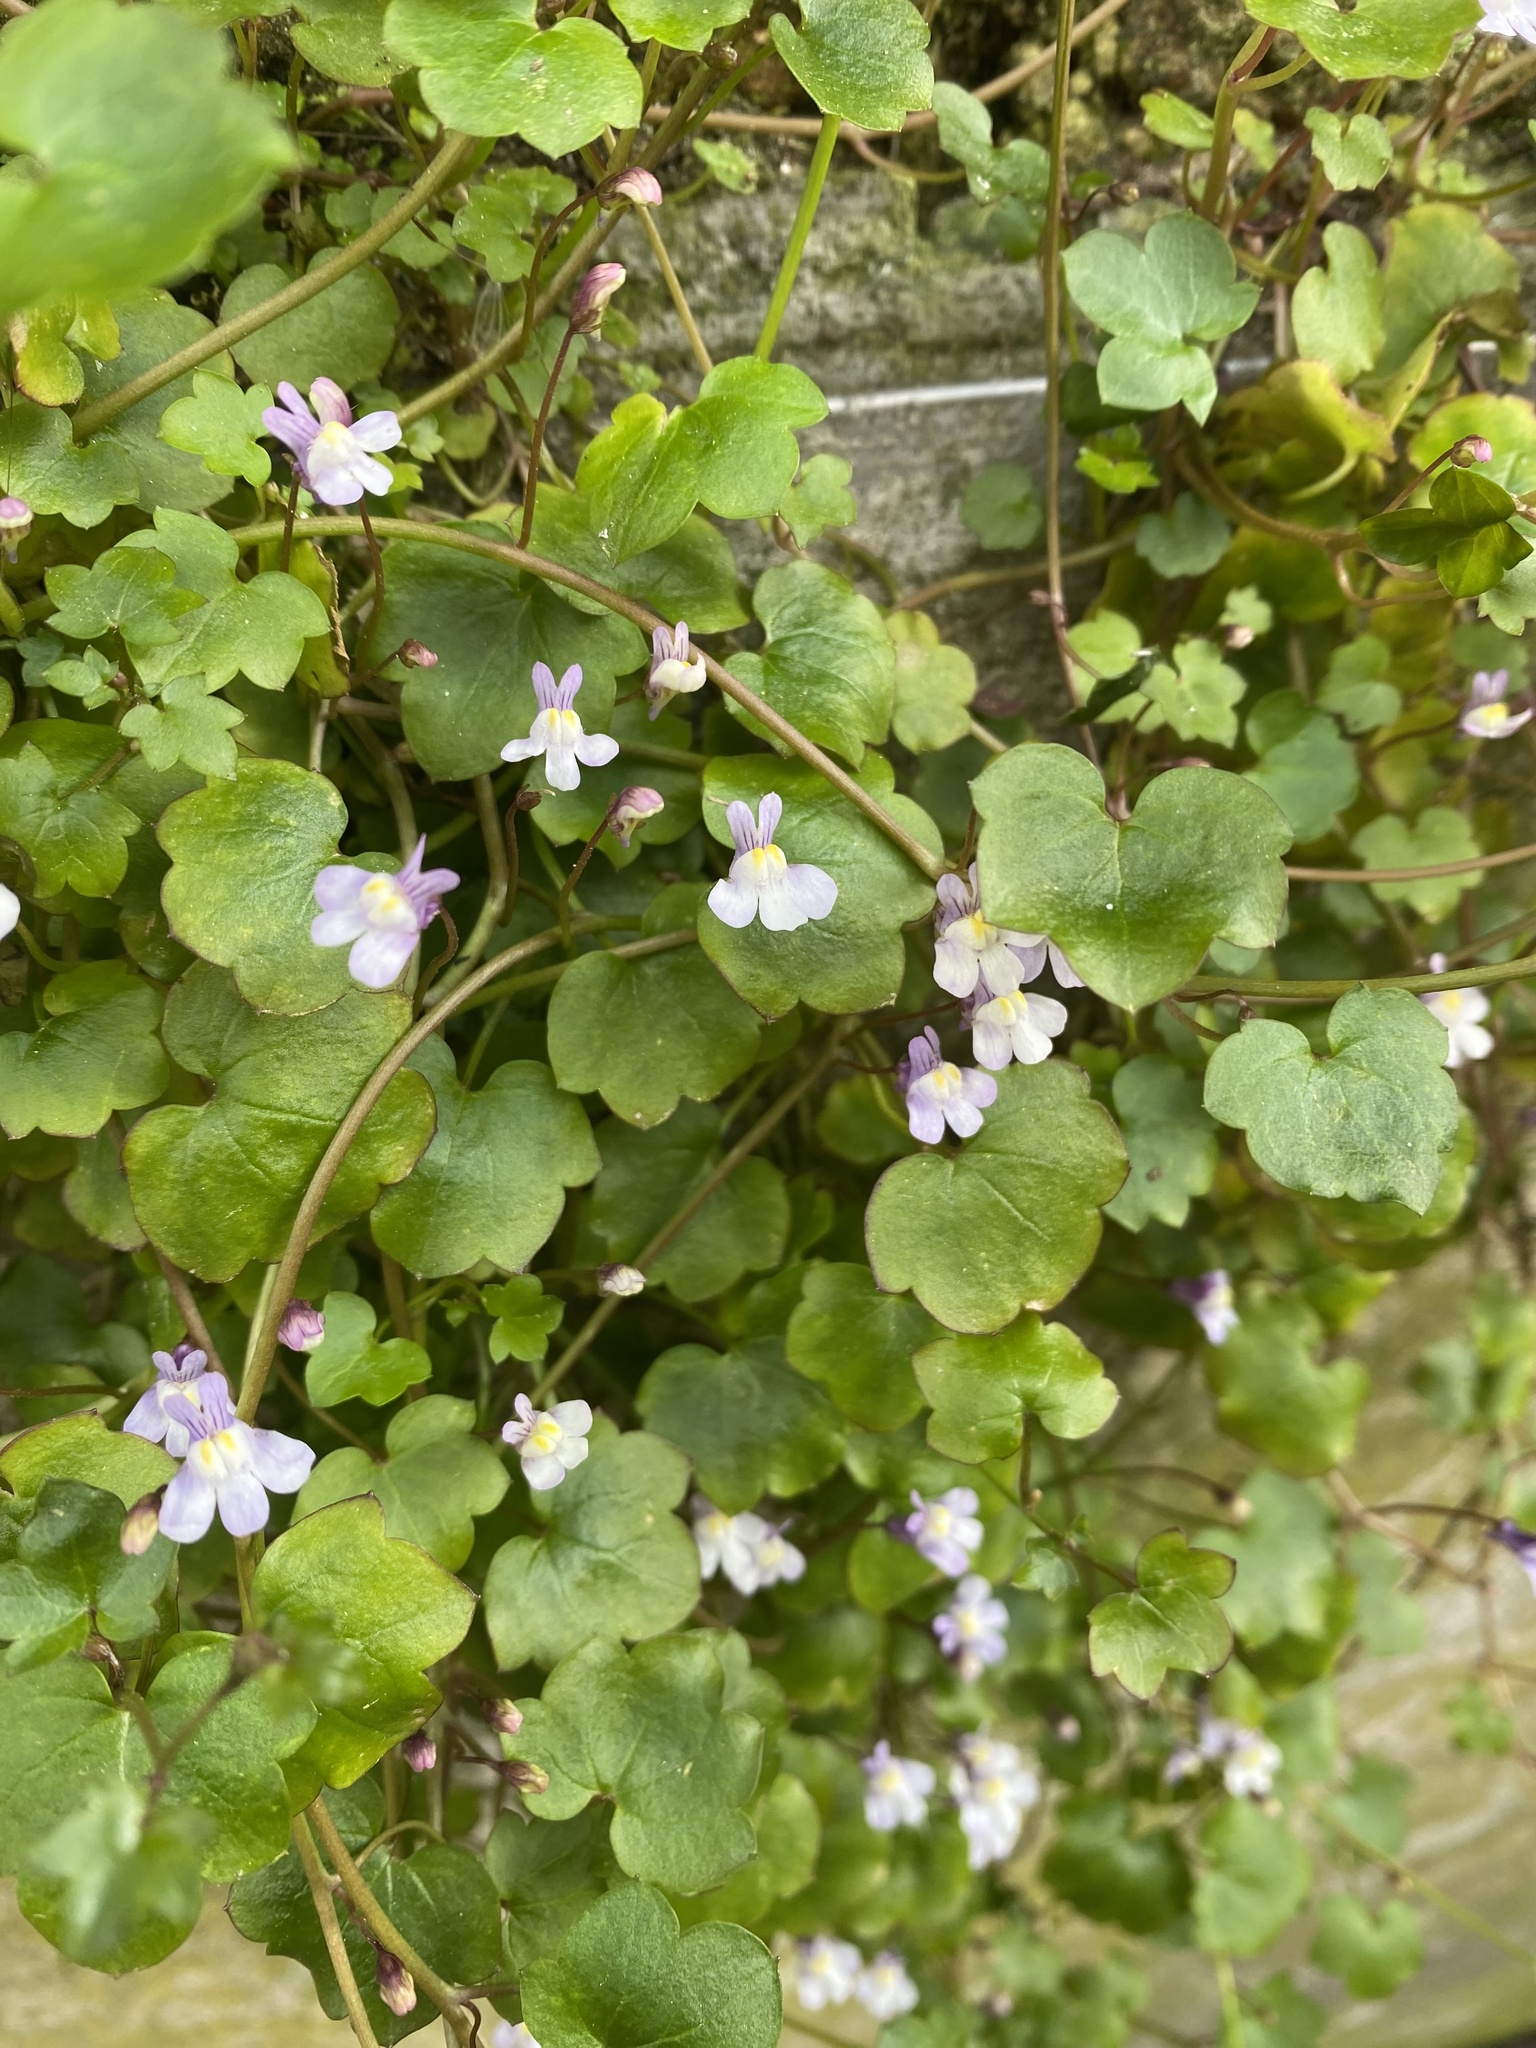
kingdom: Plantae
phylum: Tracheophyta
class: Magnoliopsida
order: Lamiales
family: Plantaginaceae
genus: Cymbalaria
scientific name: Cymbalaria muralis
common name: Ivy-leaved toadflax
